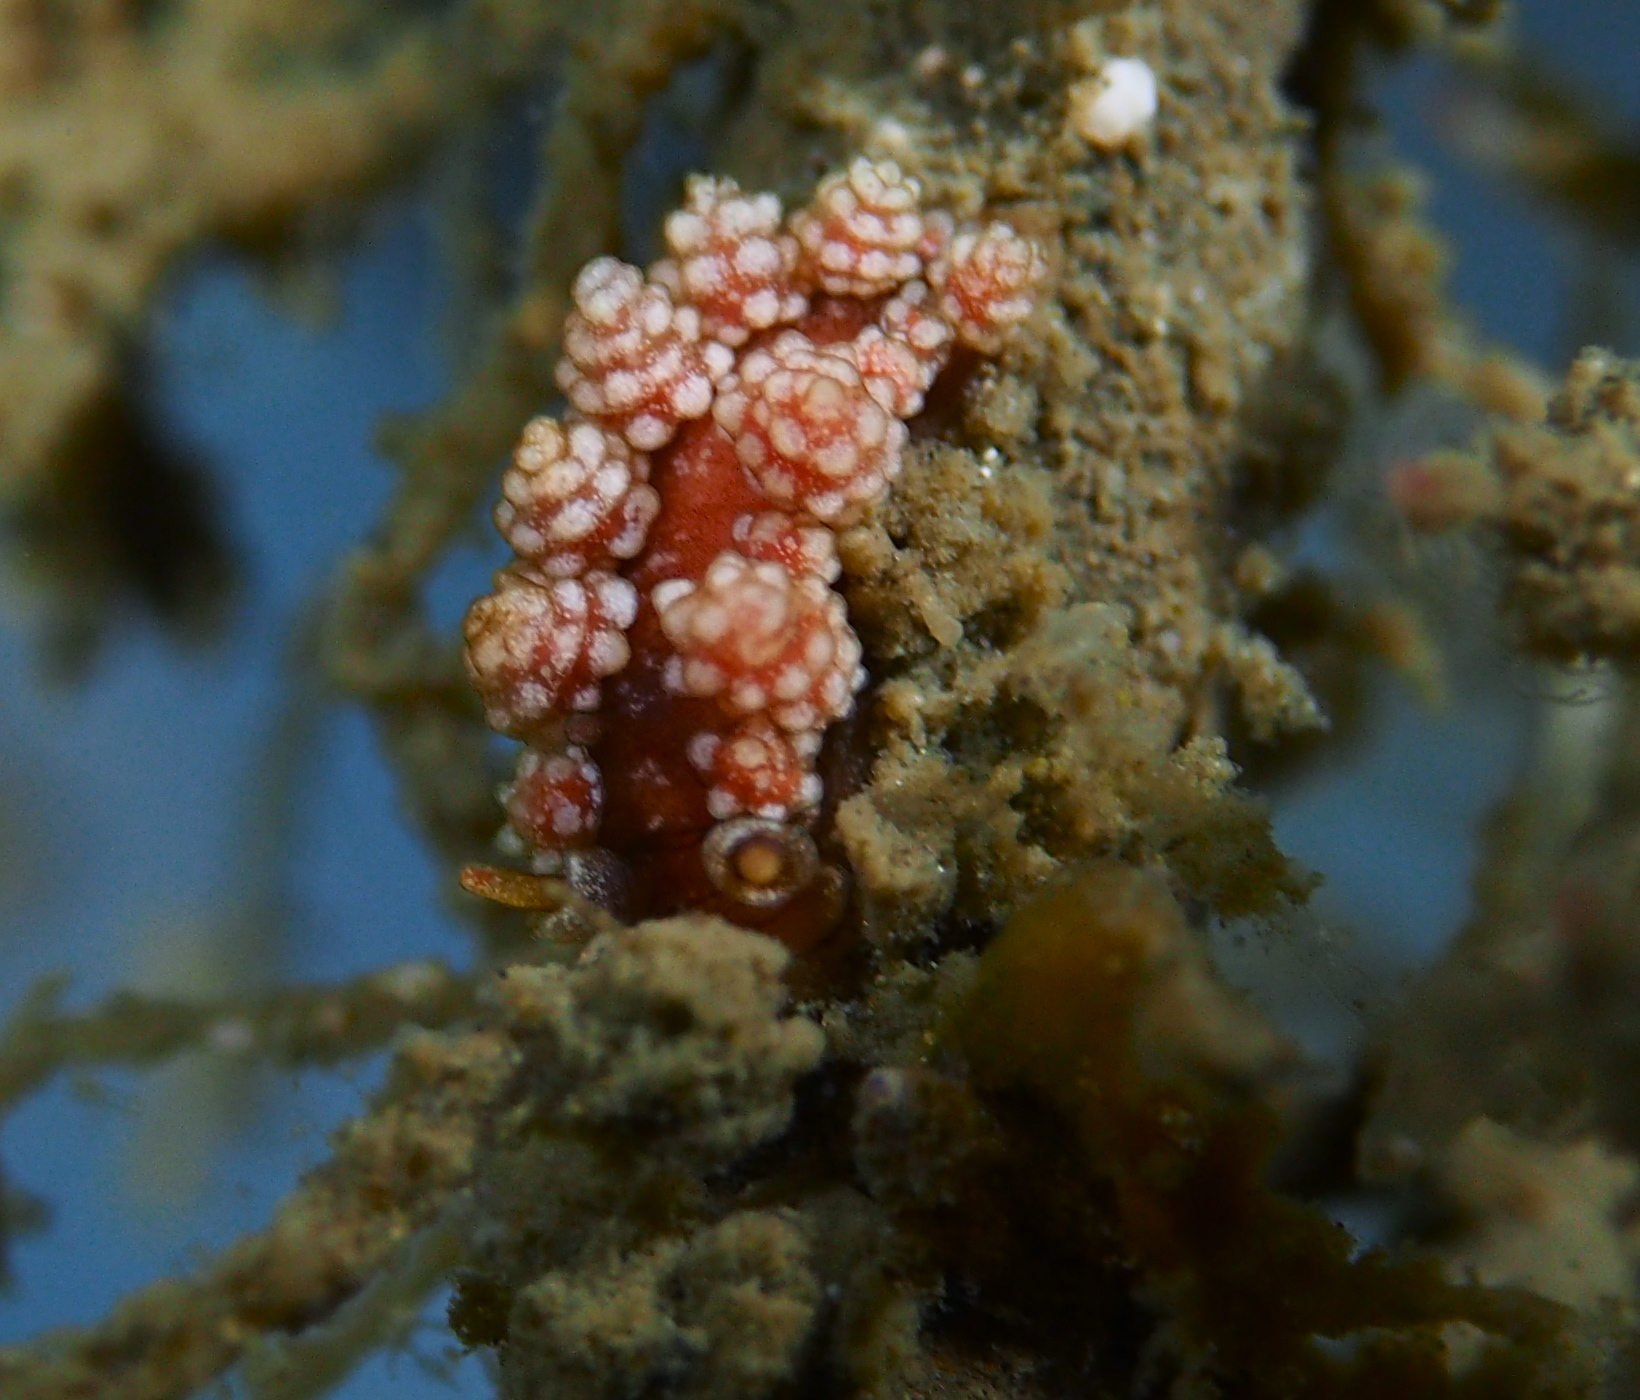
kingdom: Animalia
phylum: Mollusca
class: Gastropoda
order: Nudibranchia
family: Dotidae
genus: Doto
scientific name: Doto fragilis
